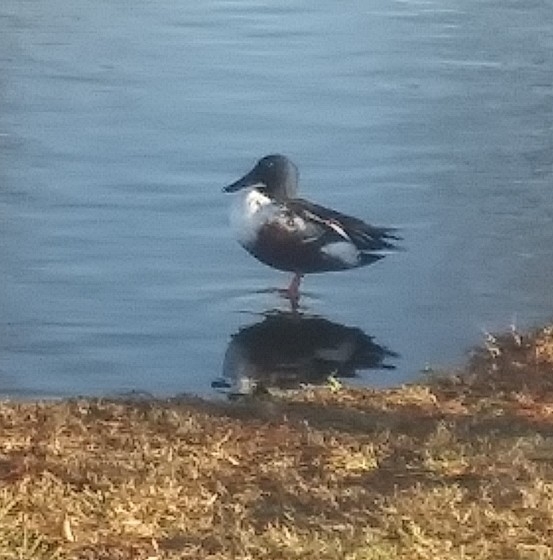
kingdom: Animalia
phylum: Chordata
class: Aves
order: Anseriformes
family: Anatidae
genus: Spatula
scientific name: Spatula clypeata
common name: Northern shoveler
